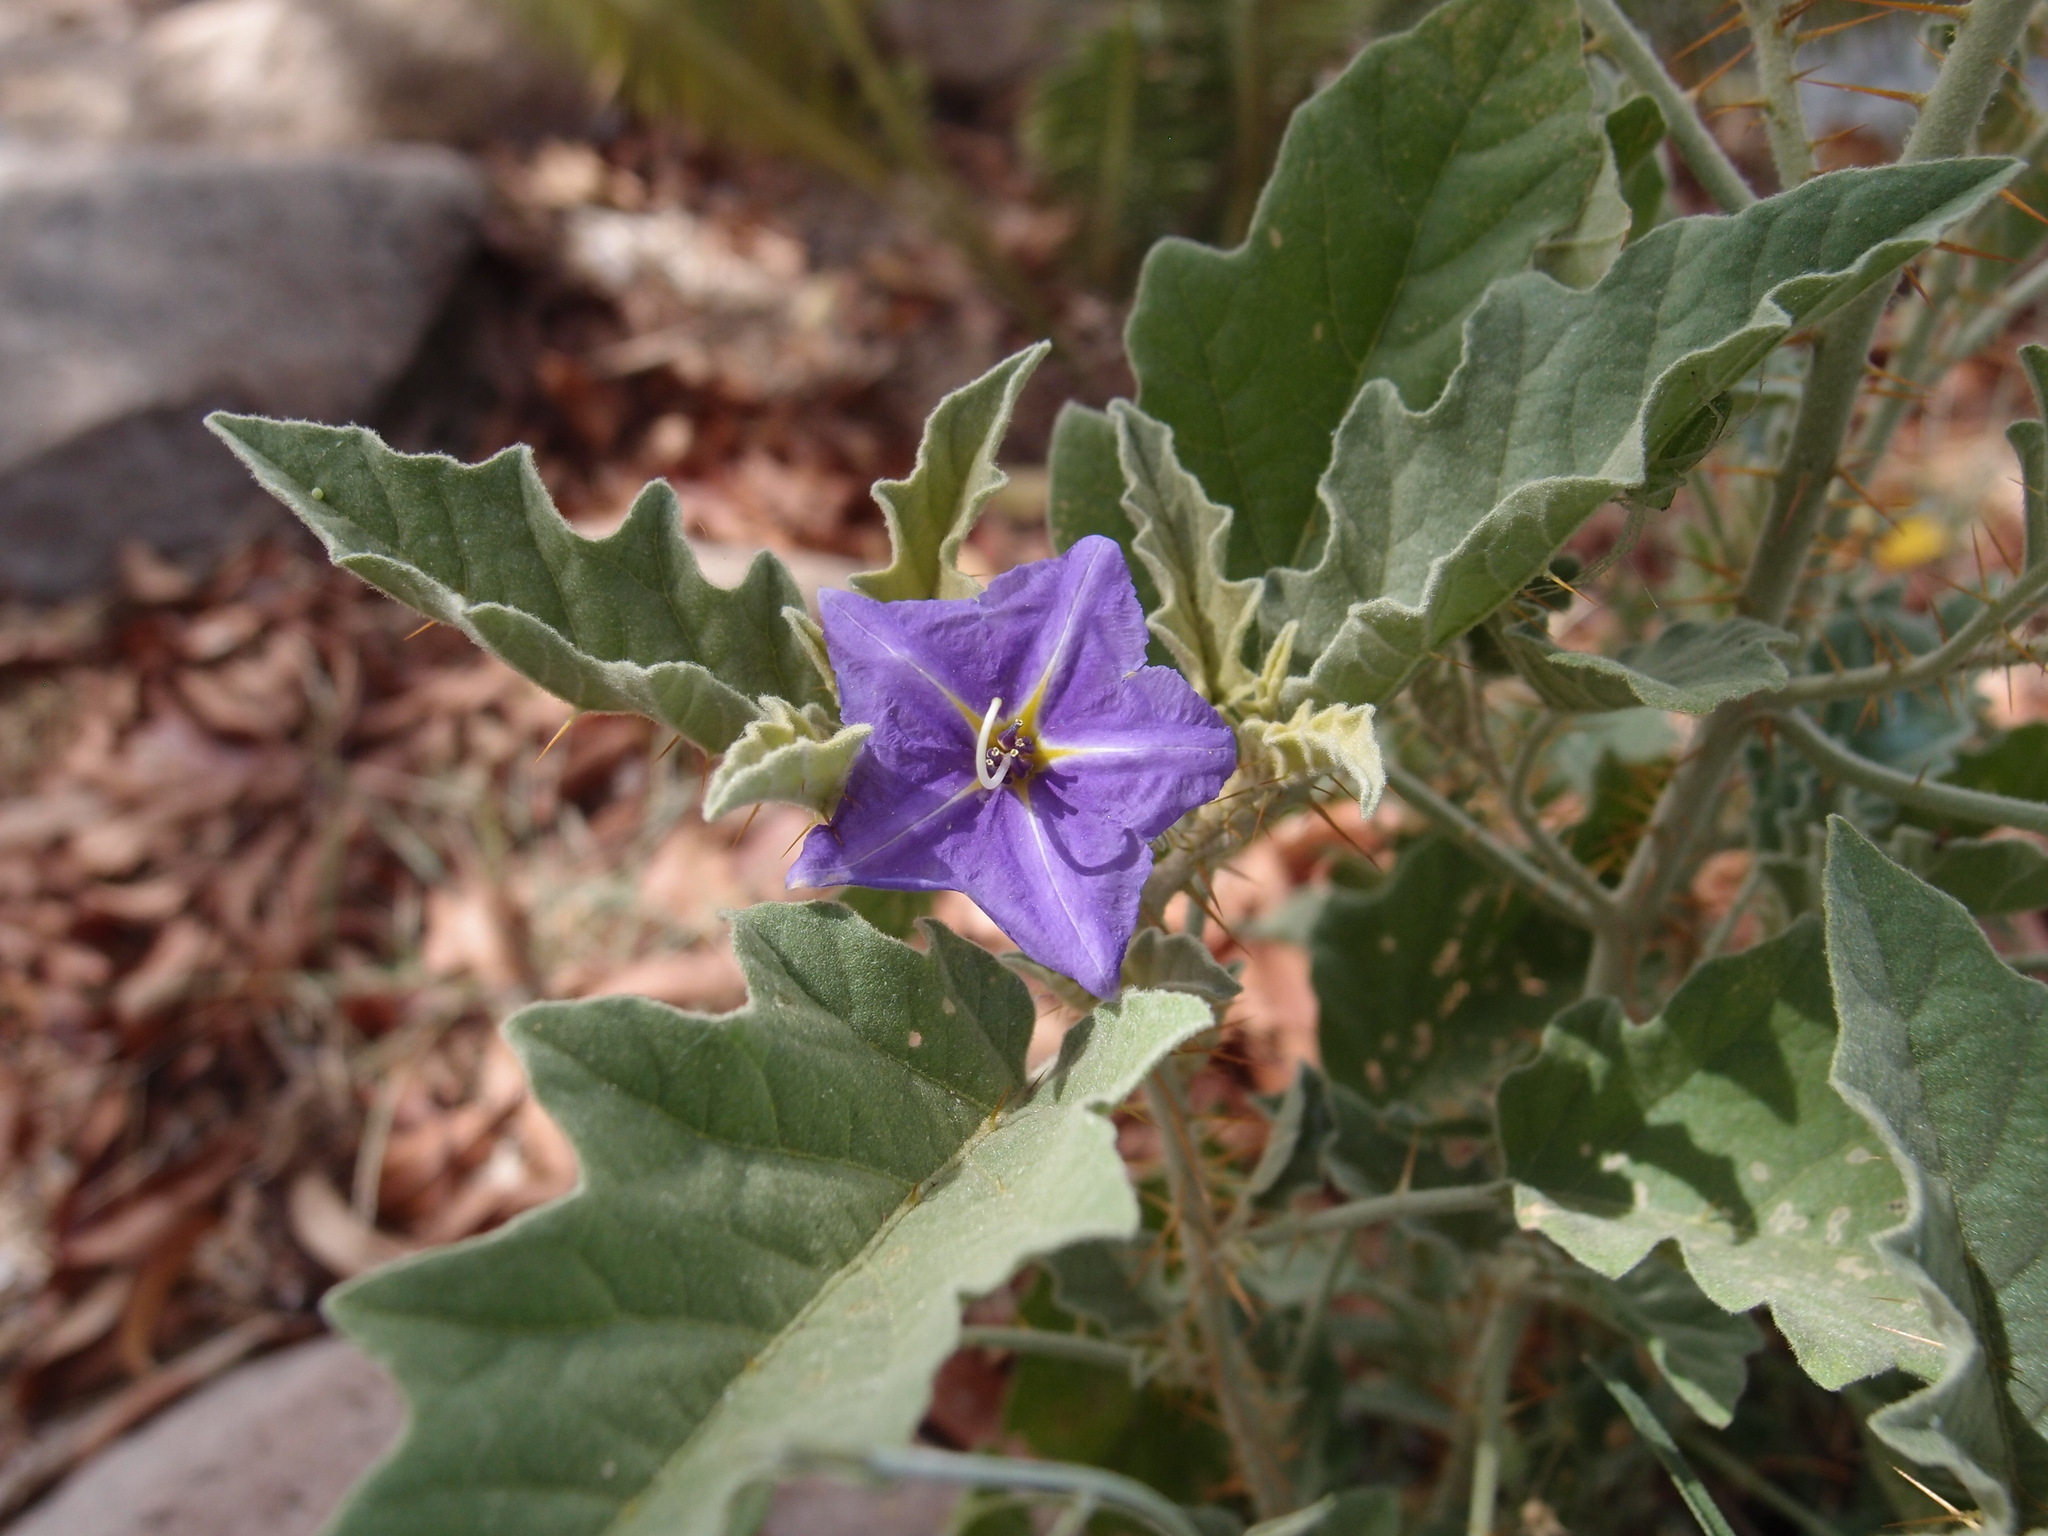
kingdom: Plantae
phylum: Tracheophyta
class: Magnoliopsida
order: Solanales
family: Solanaceae
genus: Solanum
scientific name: Solanum houstonii
